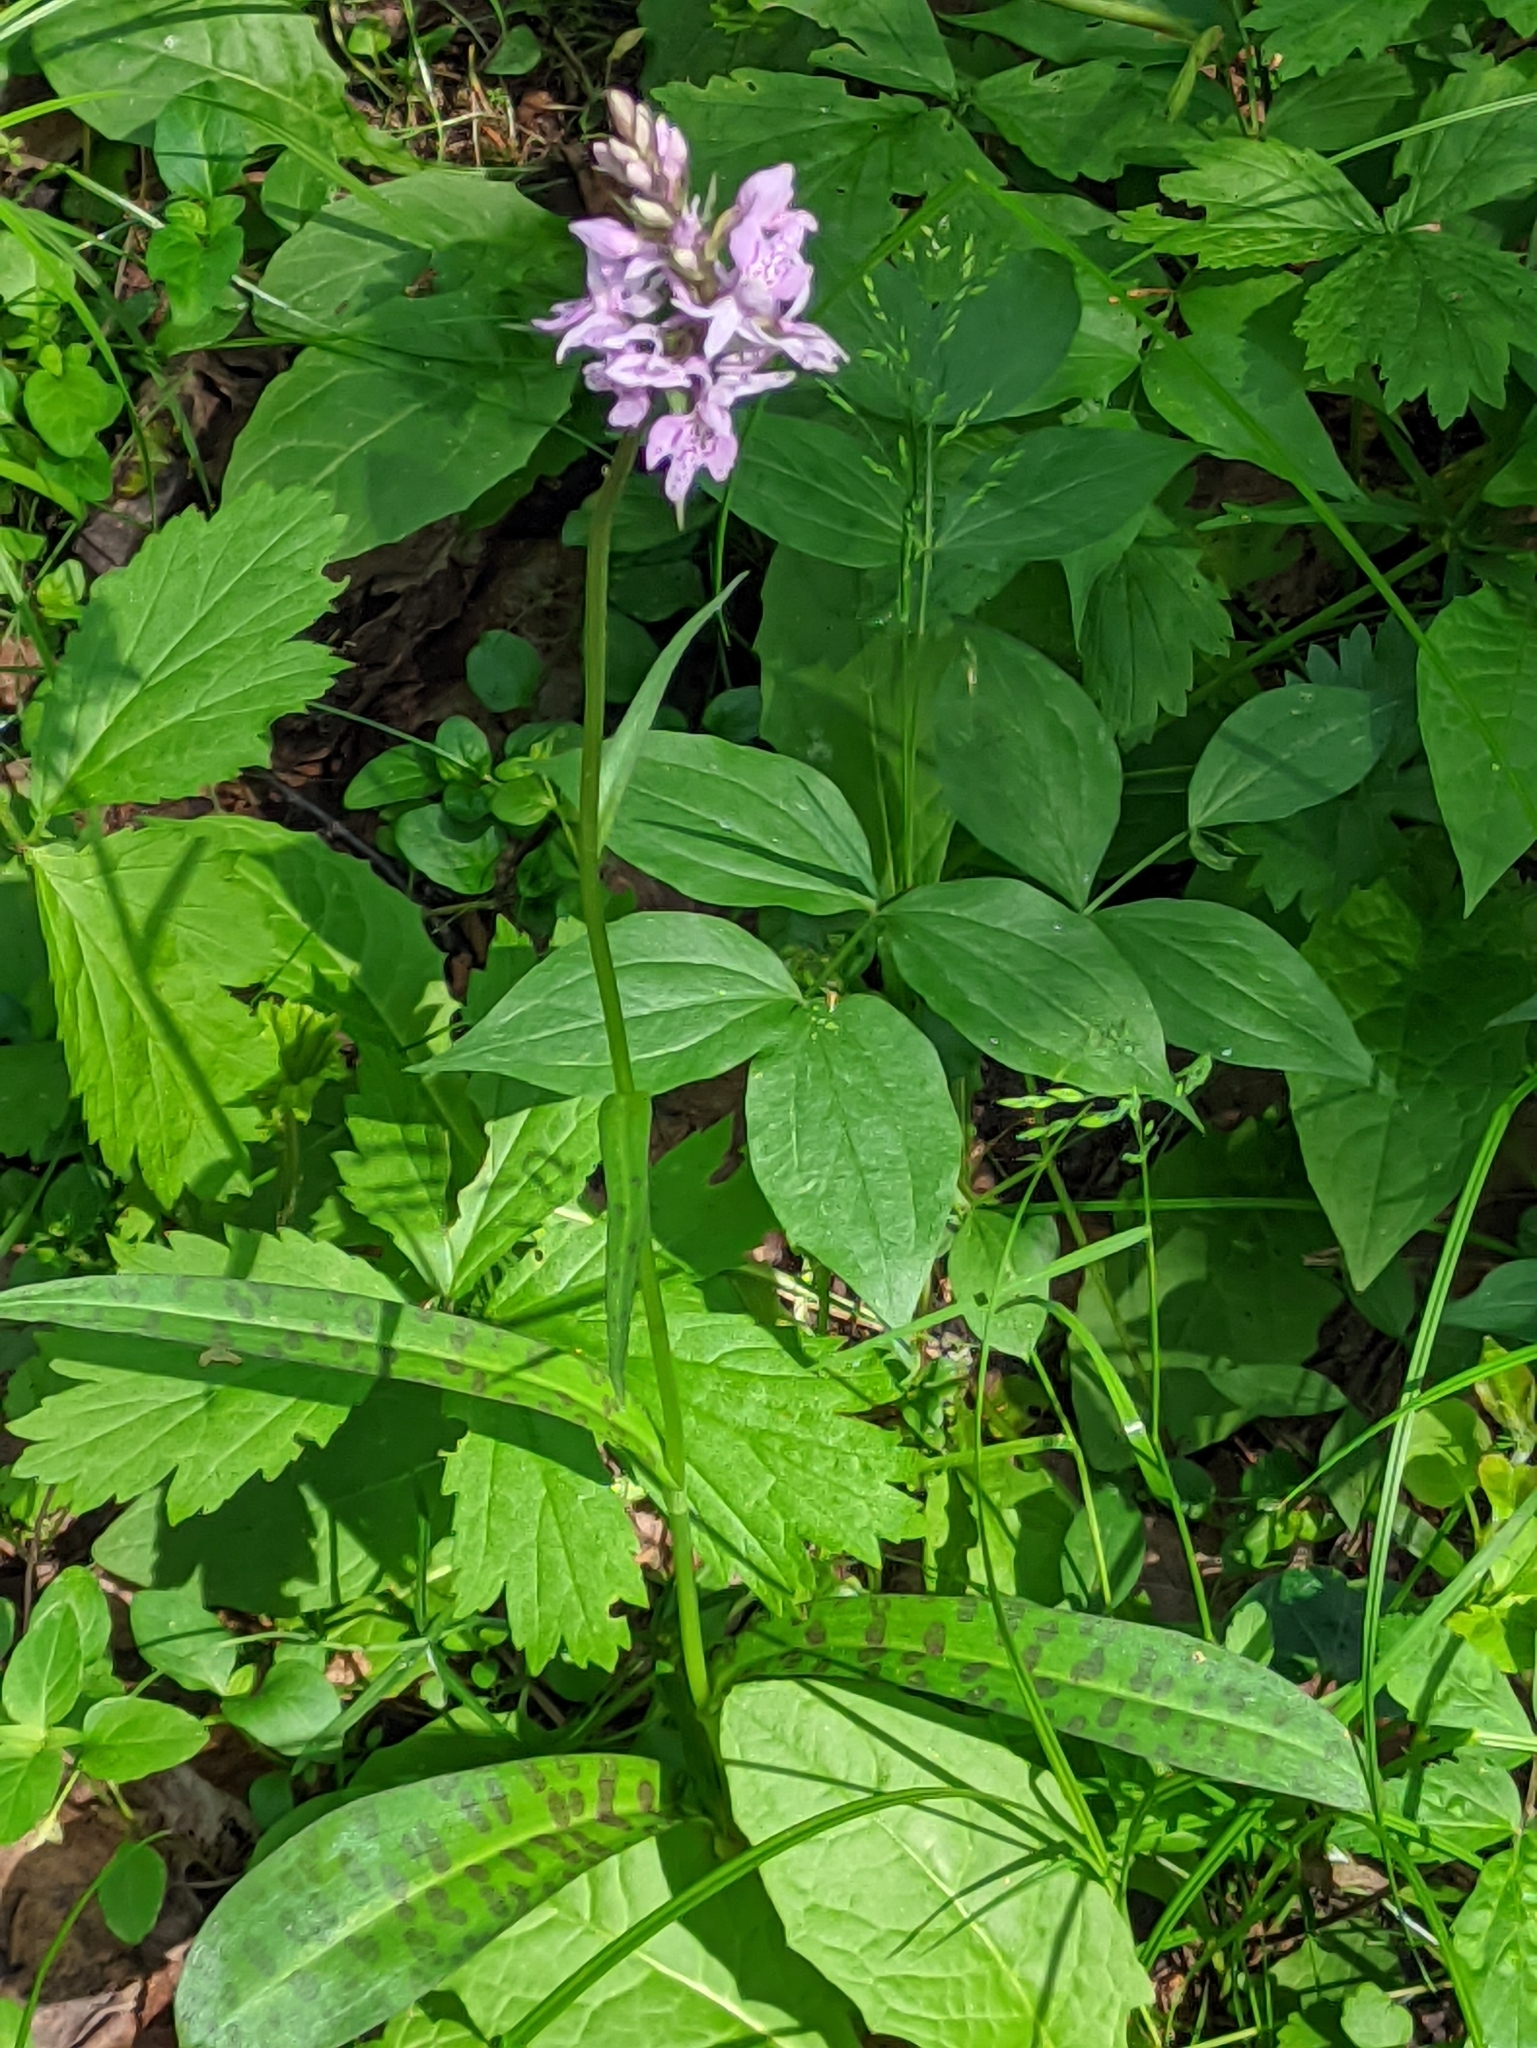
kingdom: Plantae
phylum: Tracheophyta
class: Liliopsida
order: Asparagales
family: Orchidaceae
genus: Dactylorhiza
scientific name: Dactylorhiza maculata
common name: Heath spotted-orchid
